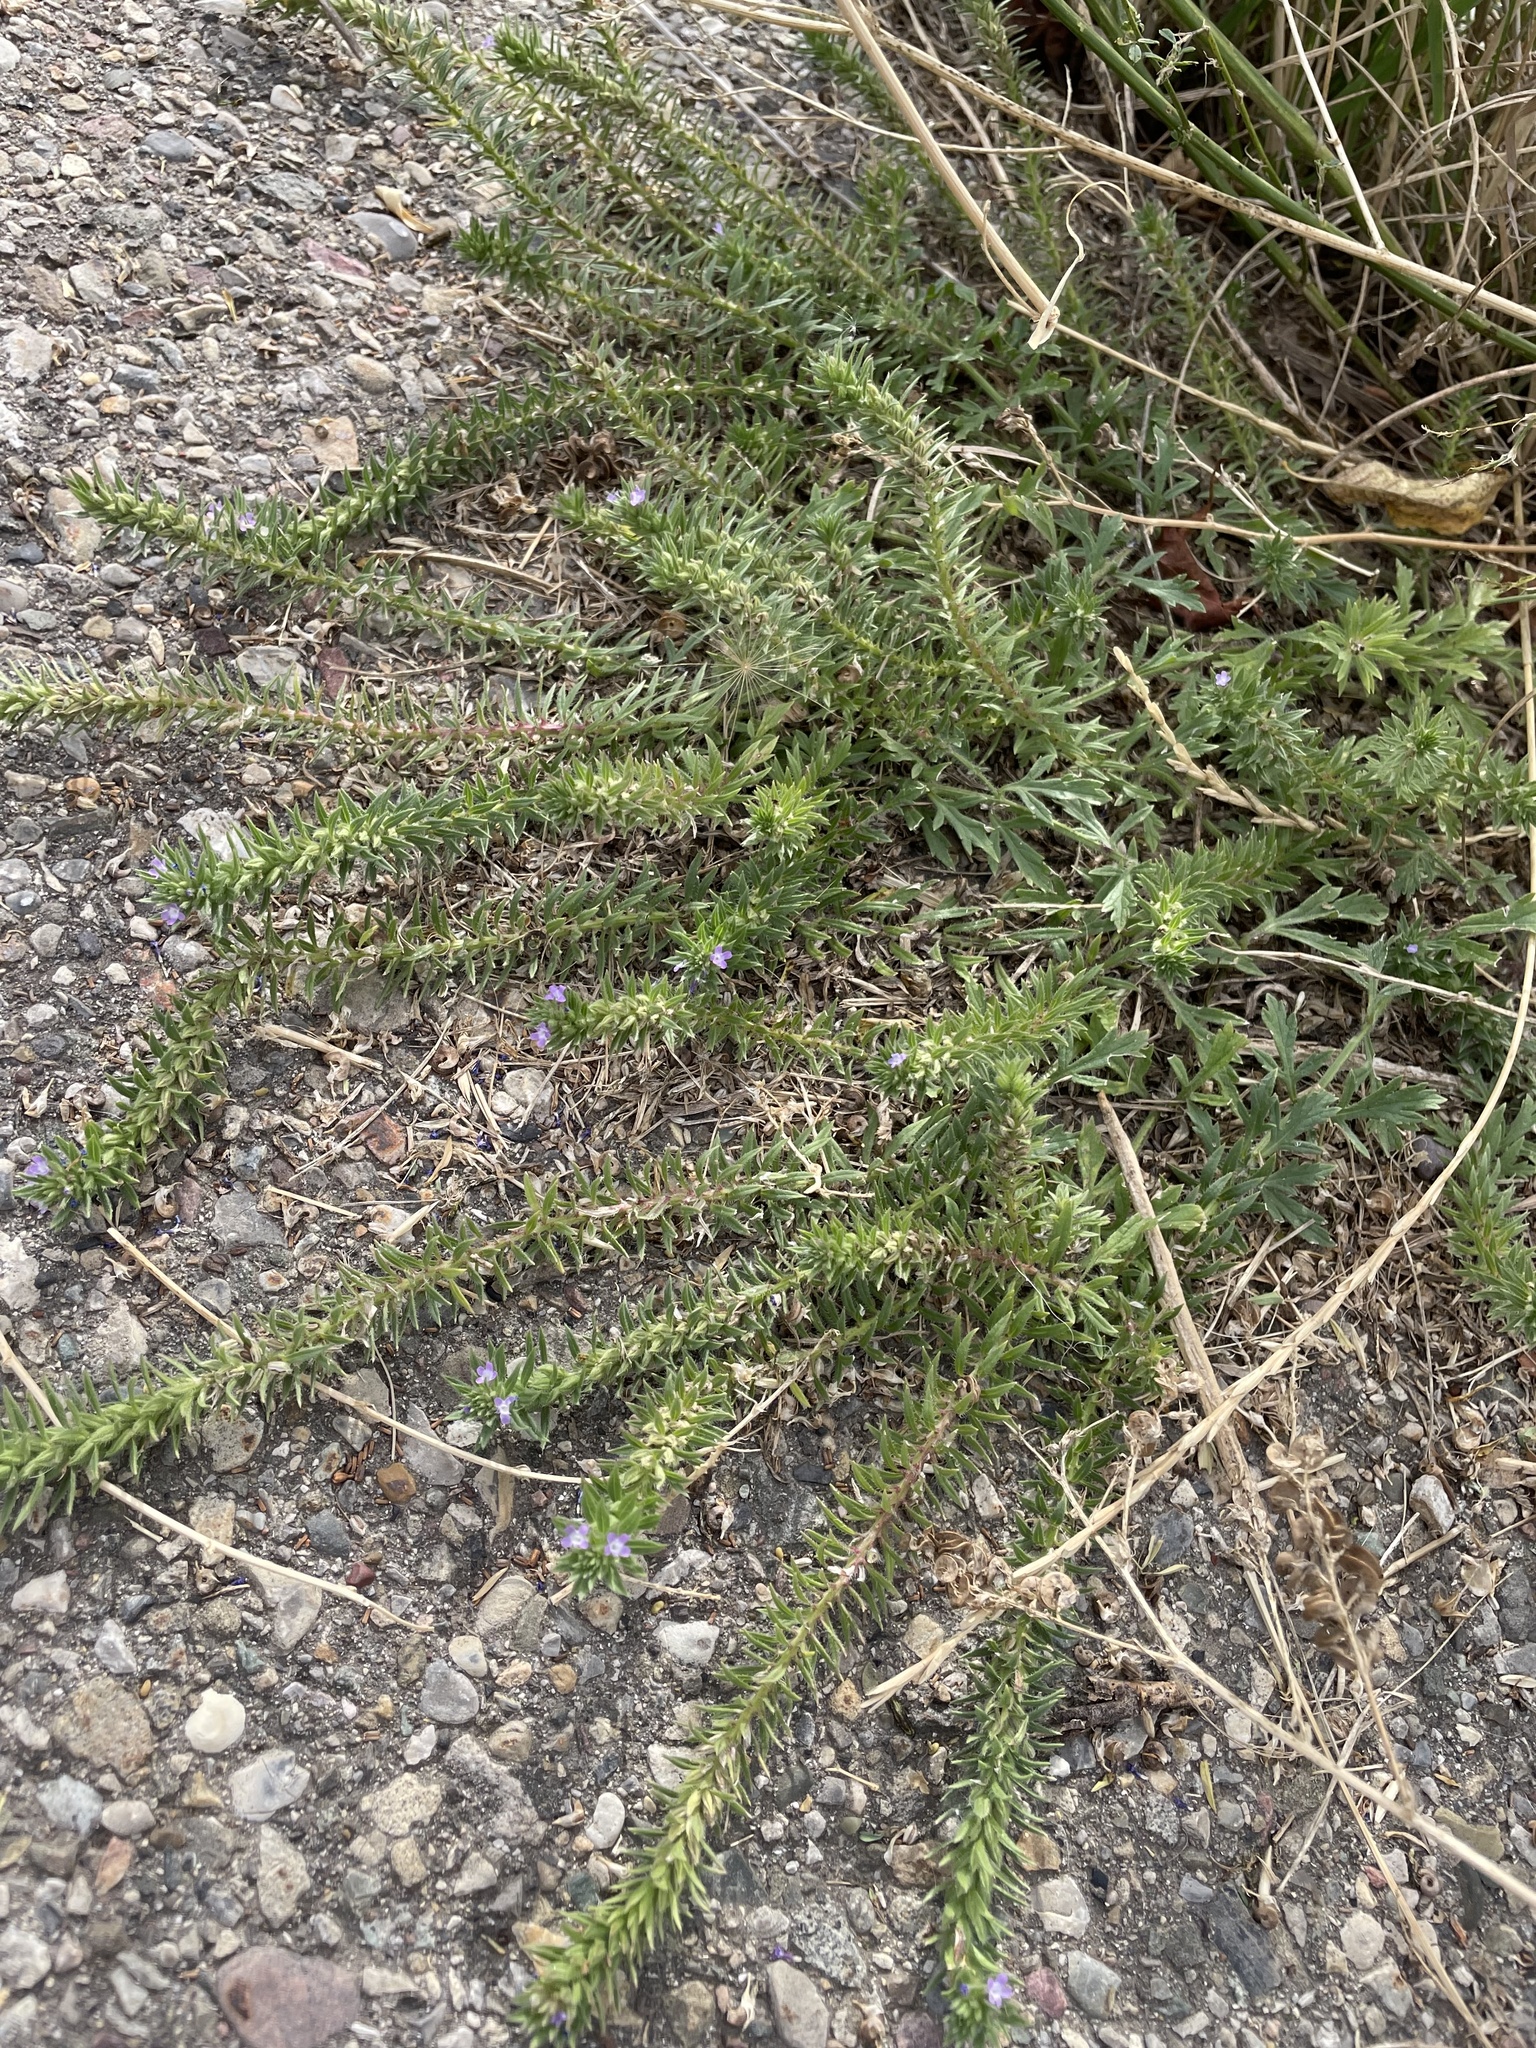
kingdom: Plantae
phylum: Tracheophyta
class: Magnoliopsida
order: Lamiales
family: Verbenaceae
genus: Verbena
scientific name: Verbena bracteata
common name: Bracted vervain
